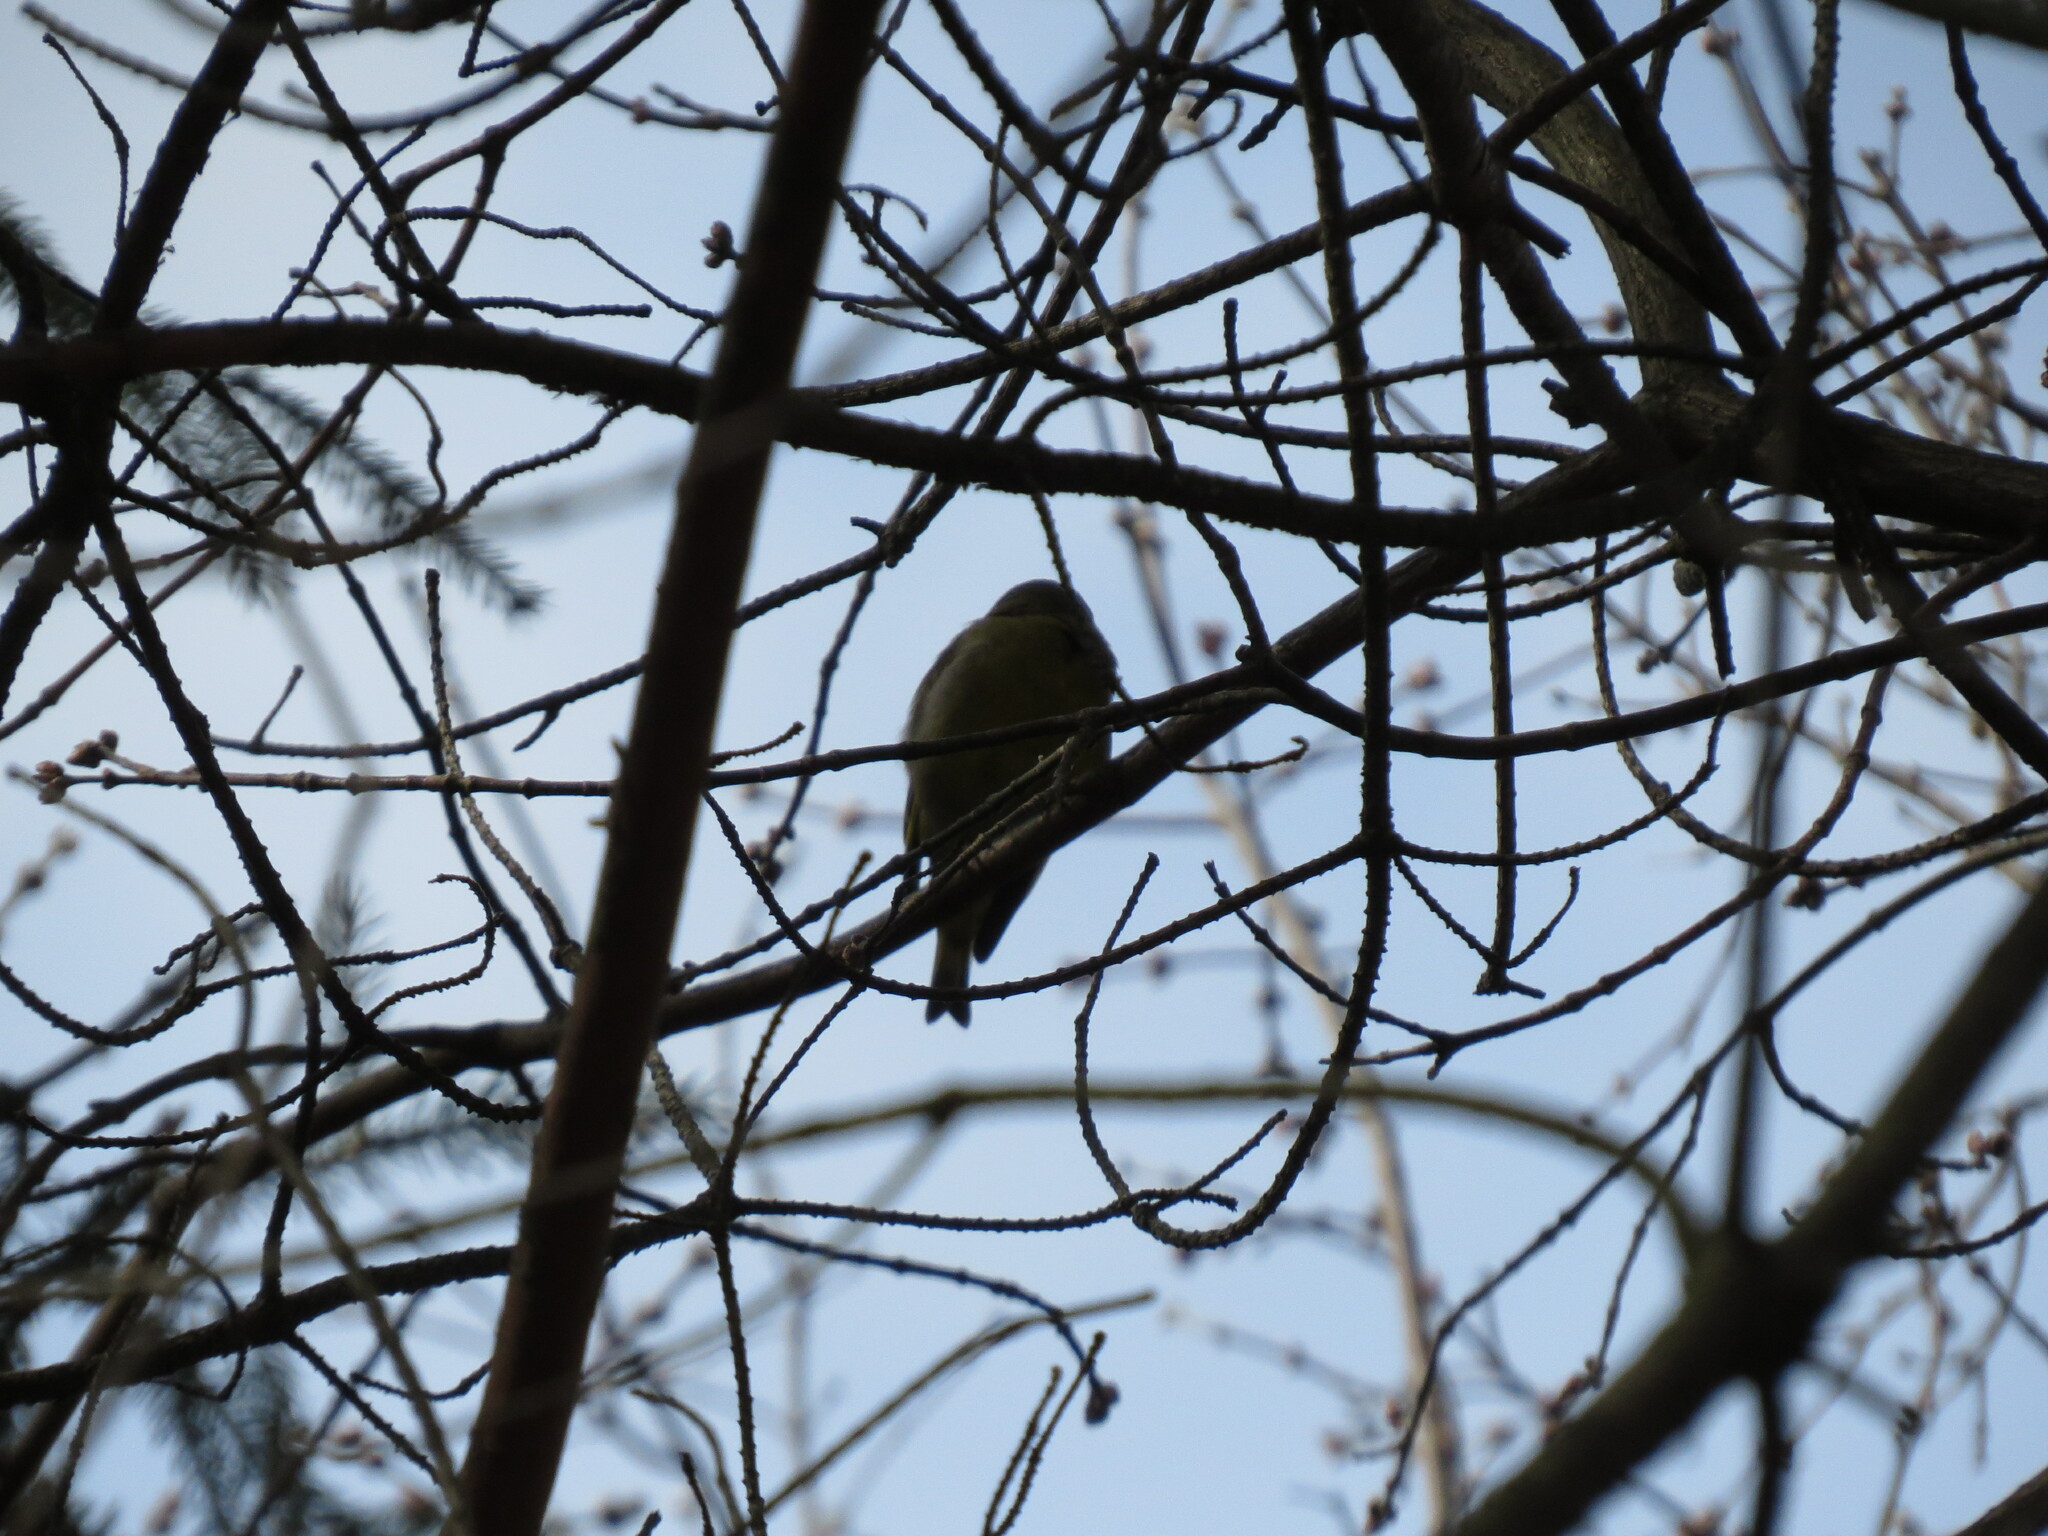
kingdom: Plantae
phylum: Tracheophyta
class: Liliopsida
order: Poales
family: Poaceae
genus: Chloris
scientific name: Chloris chloris
